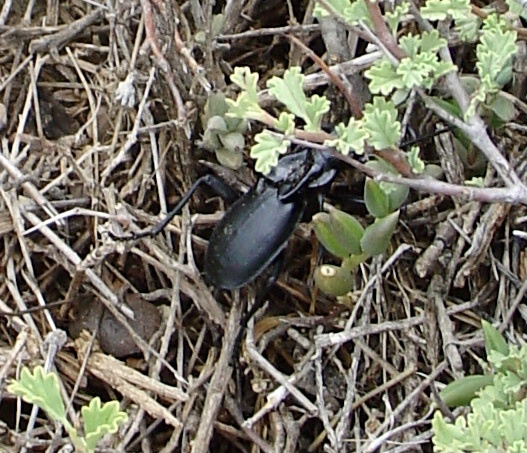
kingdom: Animalia
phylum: Arthropoda
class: Insecta
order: Coleoptera
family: Carabidae
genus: Anthia
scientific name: Anthia maxillosa
